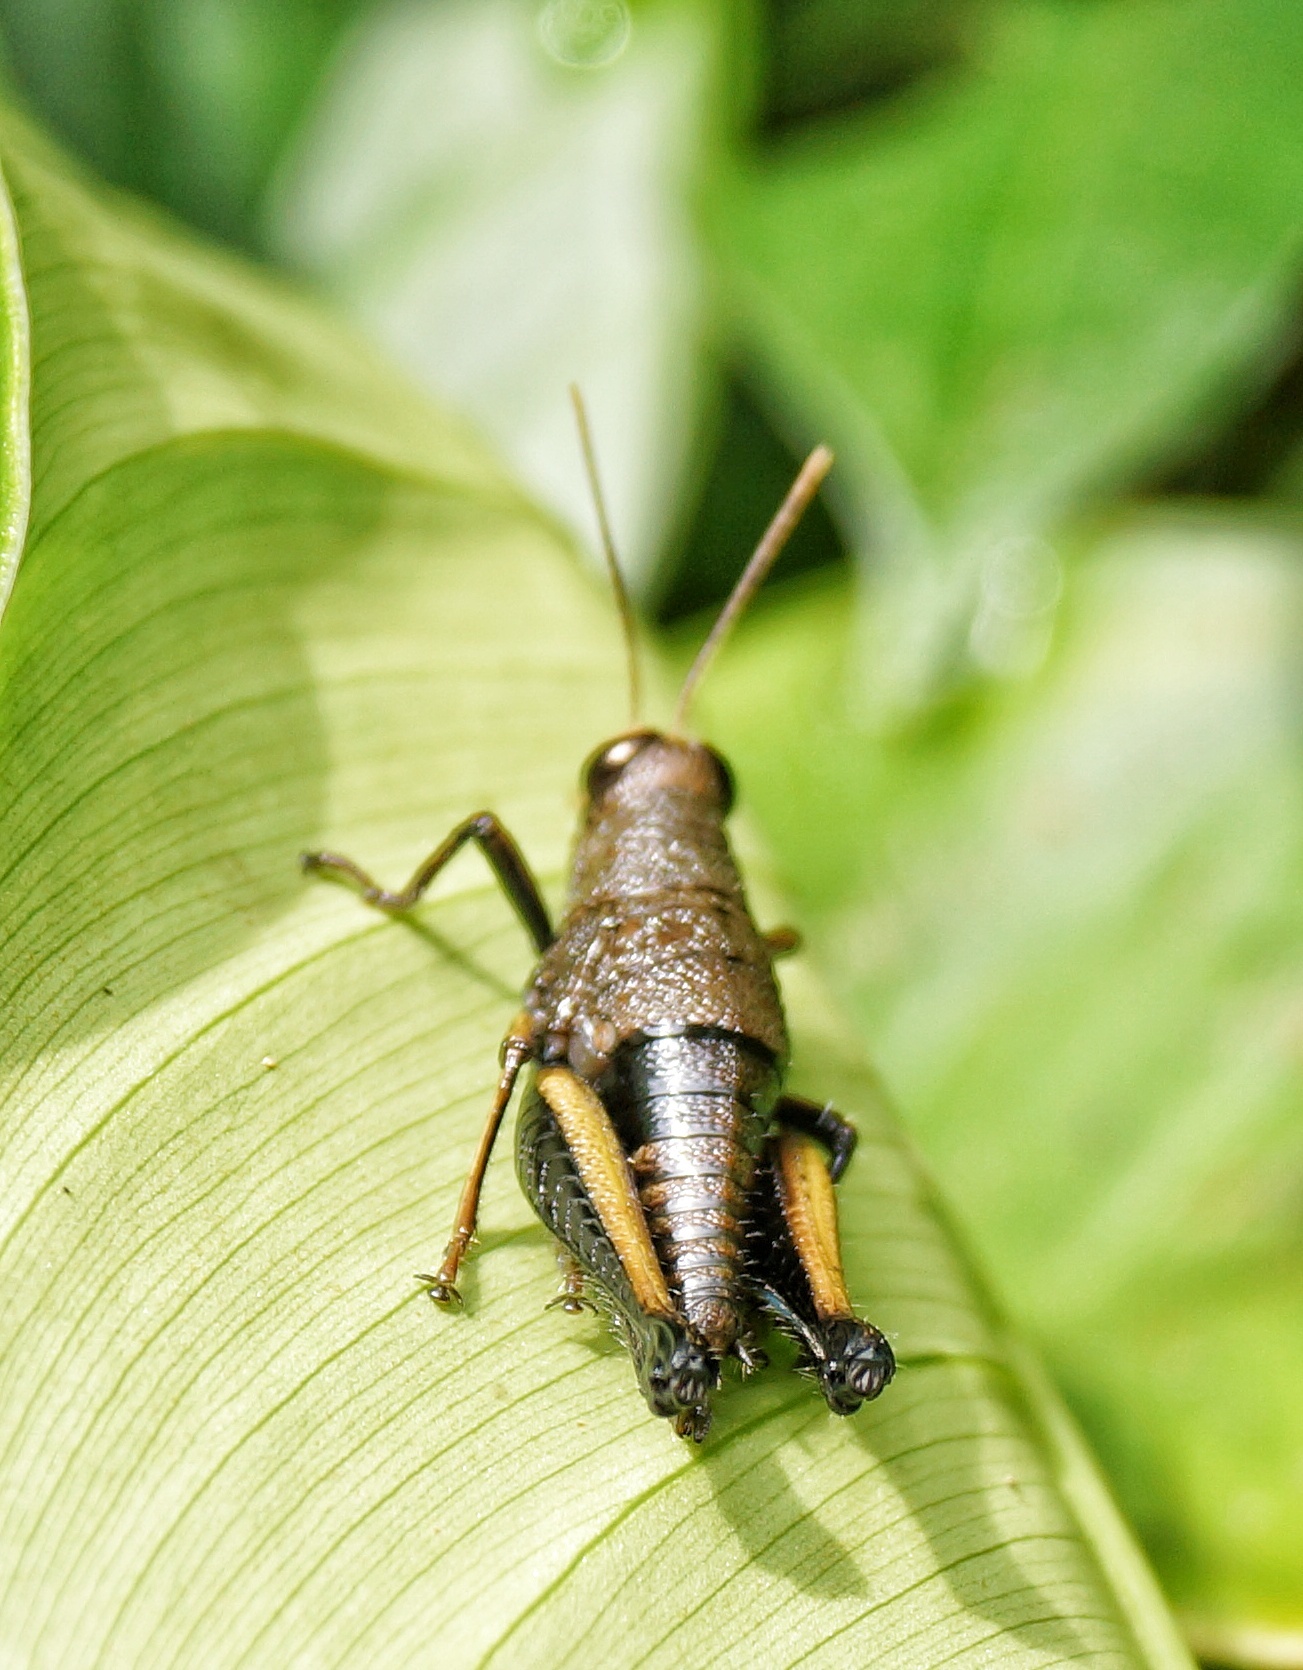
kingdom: Animalia
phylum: Arthropoda
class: Insecta
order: Orthoptera
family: Acrididae
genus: Psiloscirtus
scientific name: Psiloscirtus flavipes
